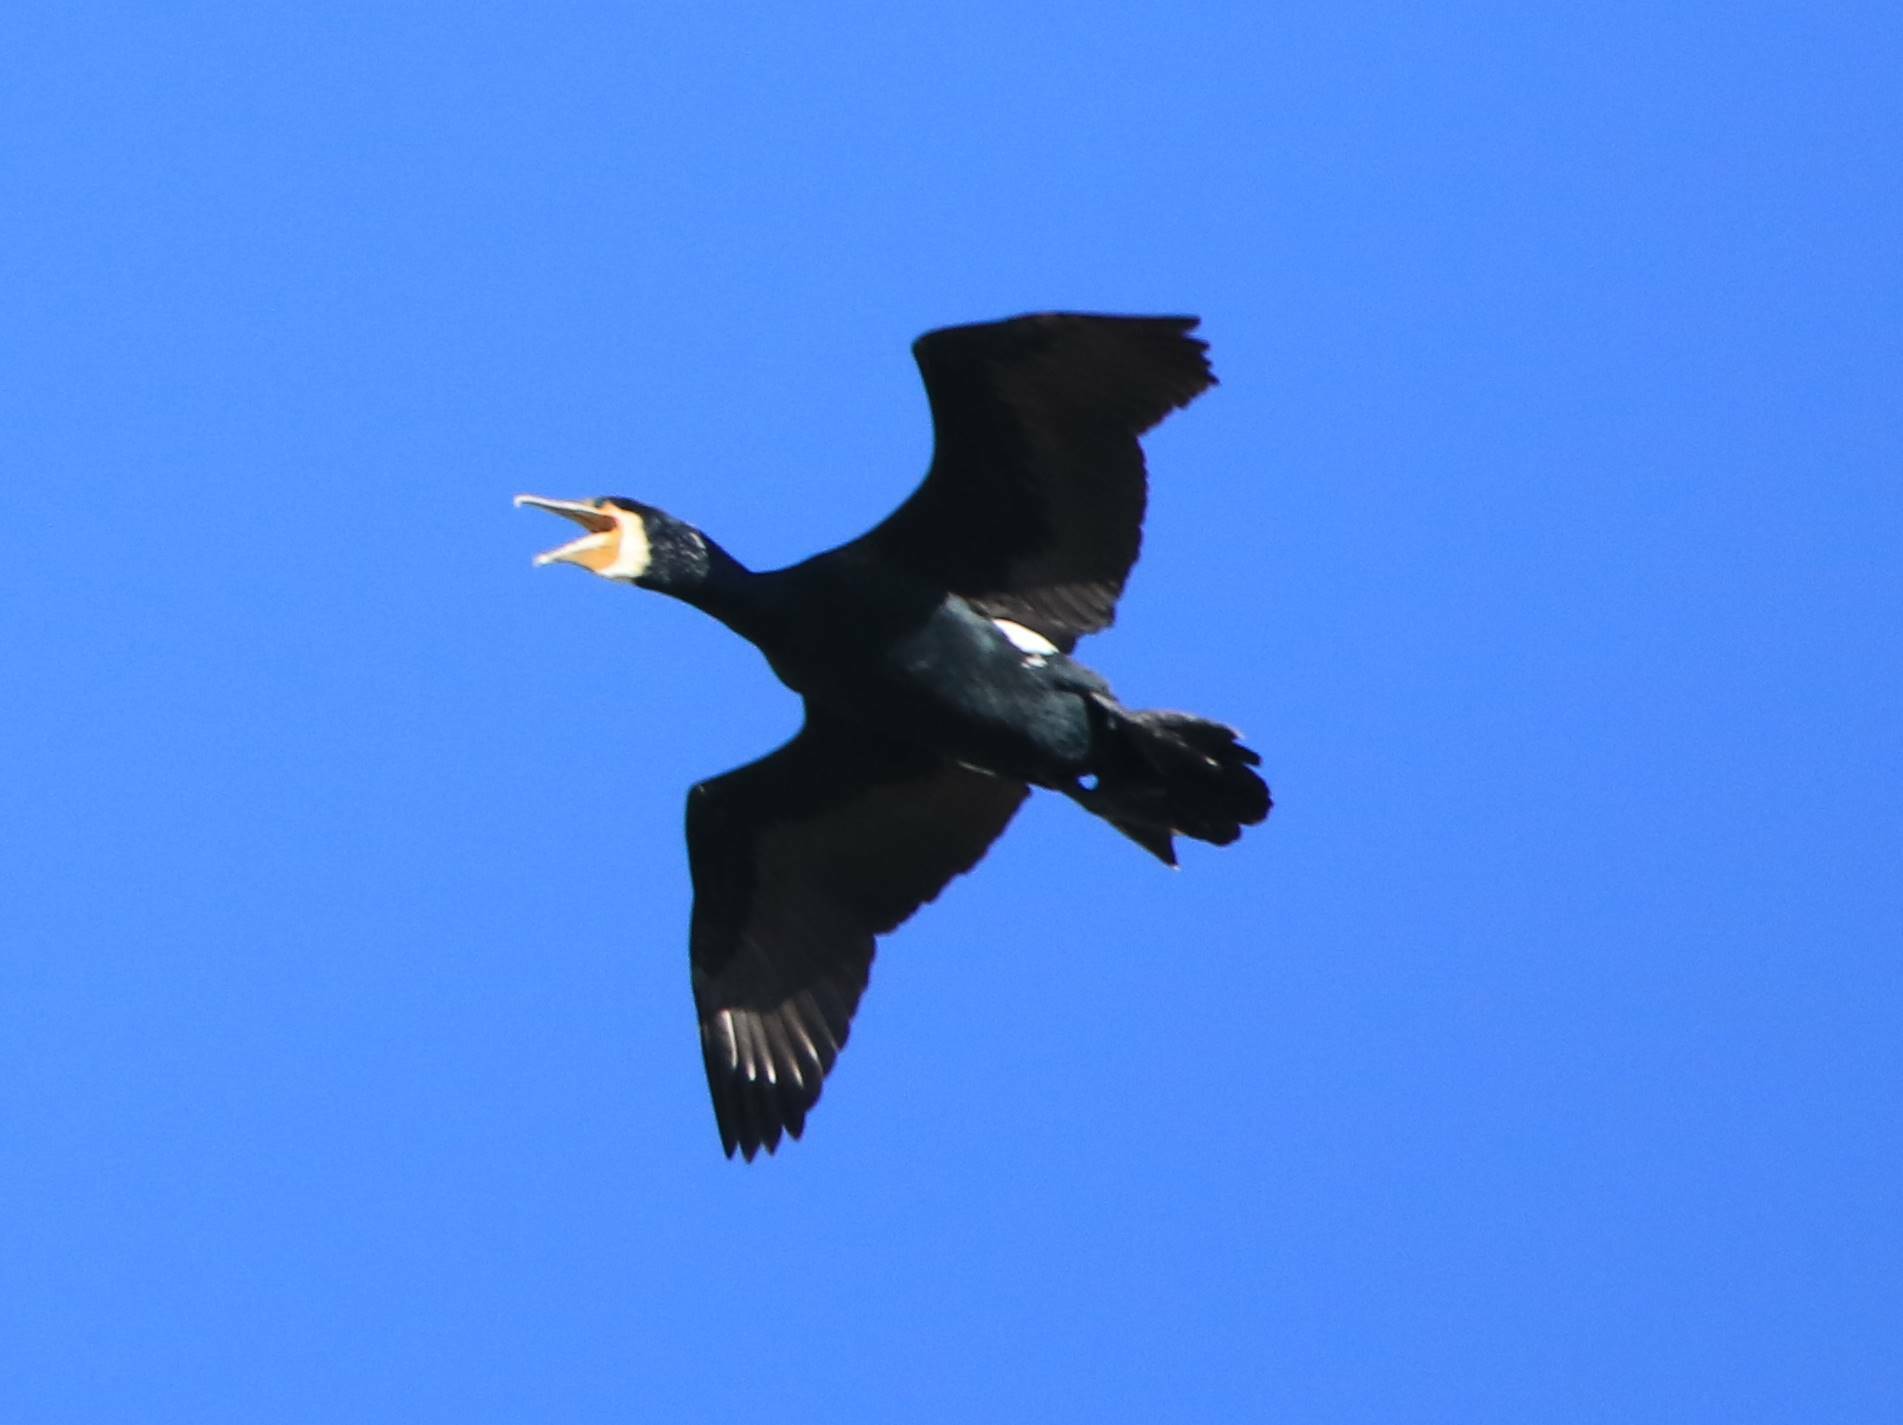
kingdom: Animalia
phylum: Chordata
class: Aves
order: Suliformes
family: Phalacrocoracidae
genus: Phalacrocorax
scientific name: Phalacrocorax carbo
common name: Great cormorant
